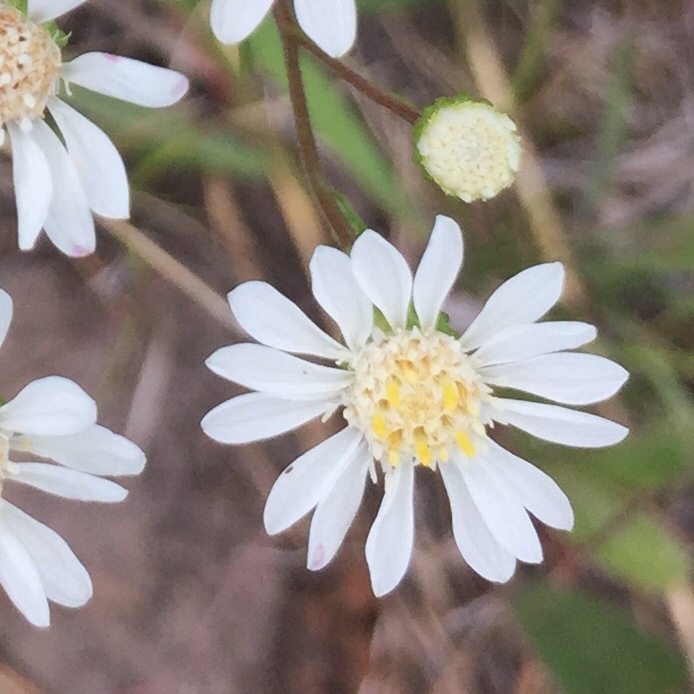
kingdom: Plantae
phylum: Tracheophyta
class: Magnoliopsida
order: Asterales
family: Asteraceae
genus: Solidago
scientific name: Solidago ptarmicoides
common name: White flat-top goldenrod
